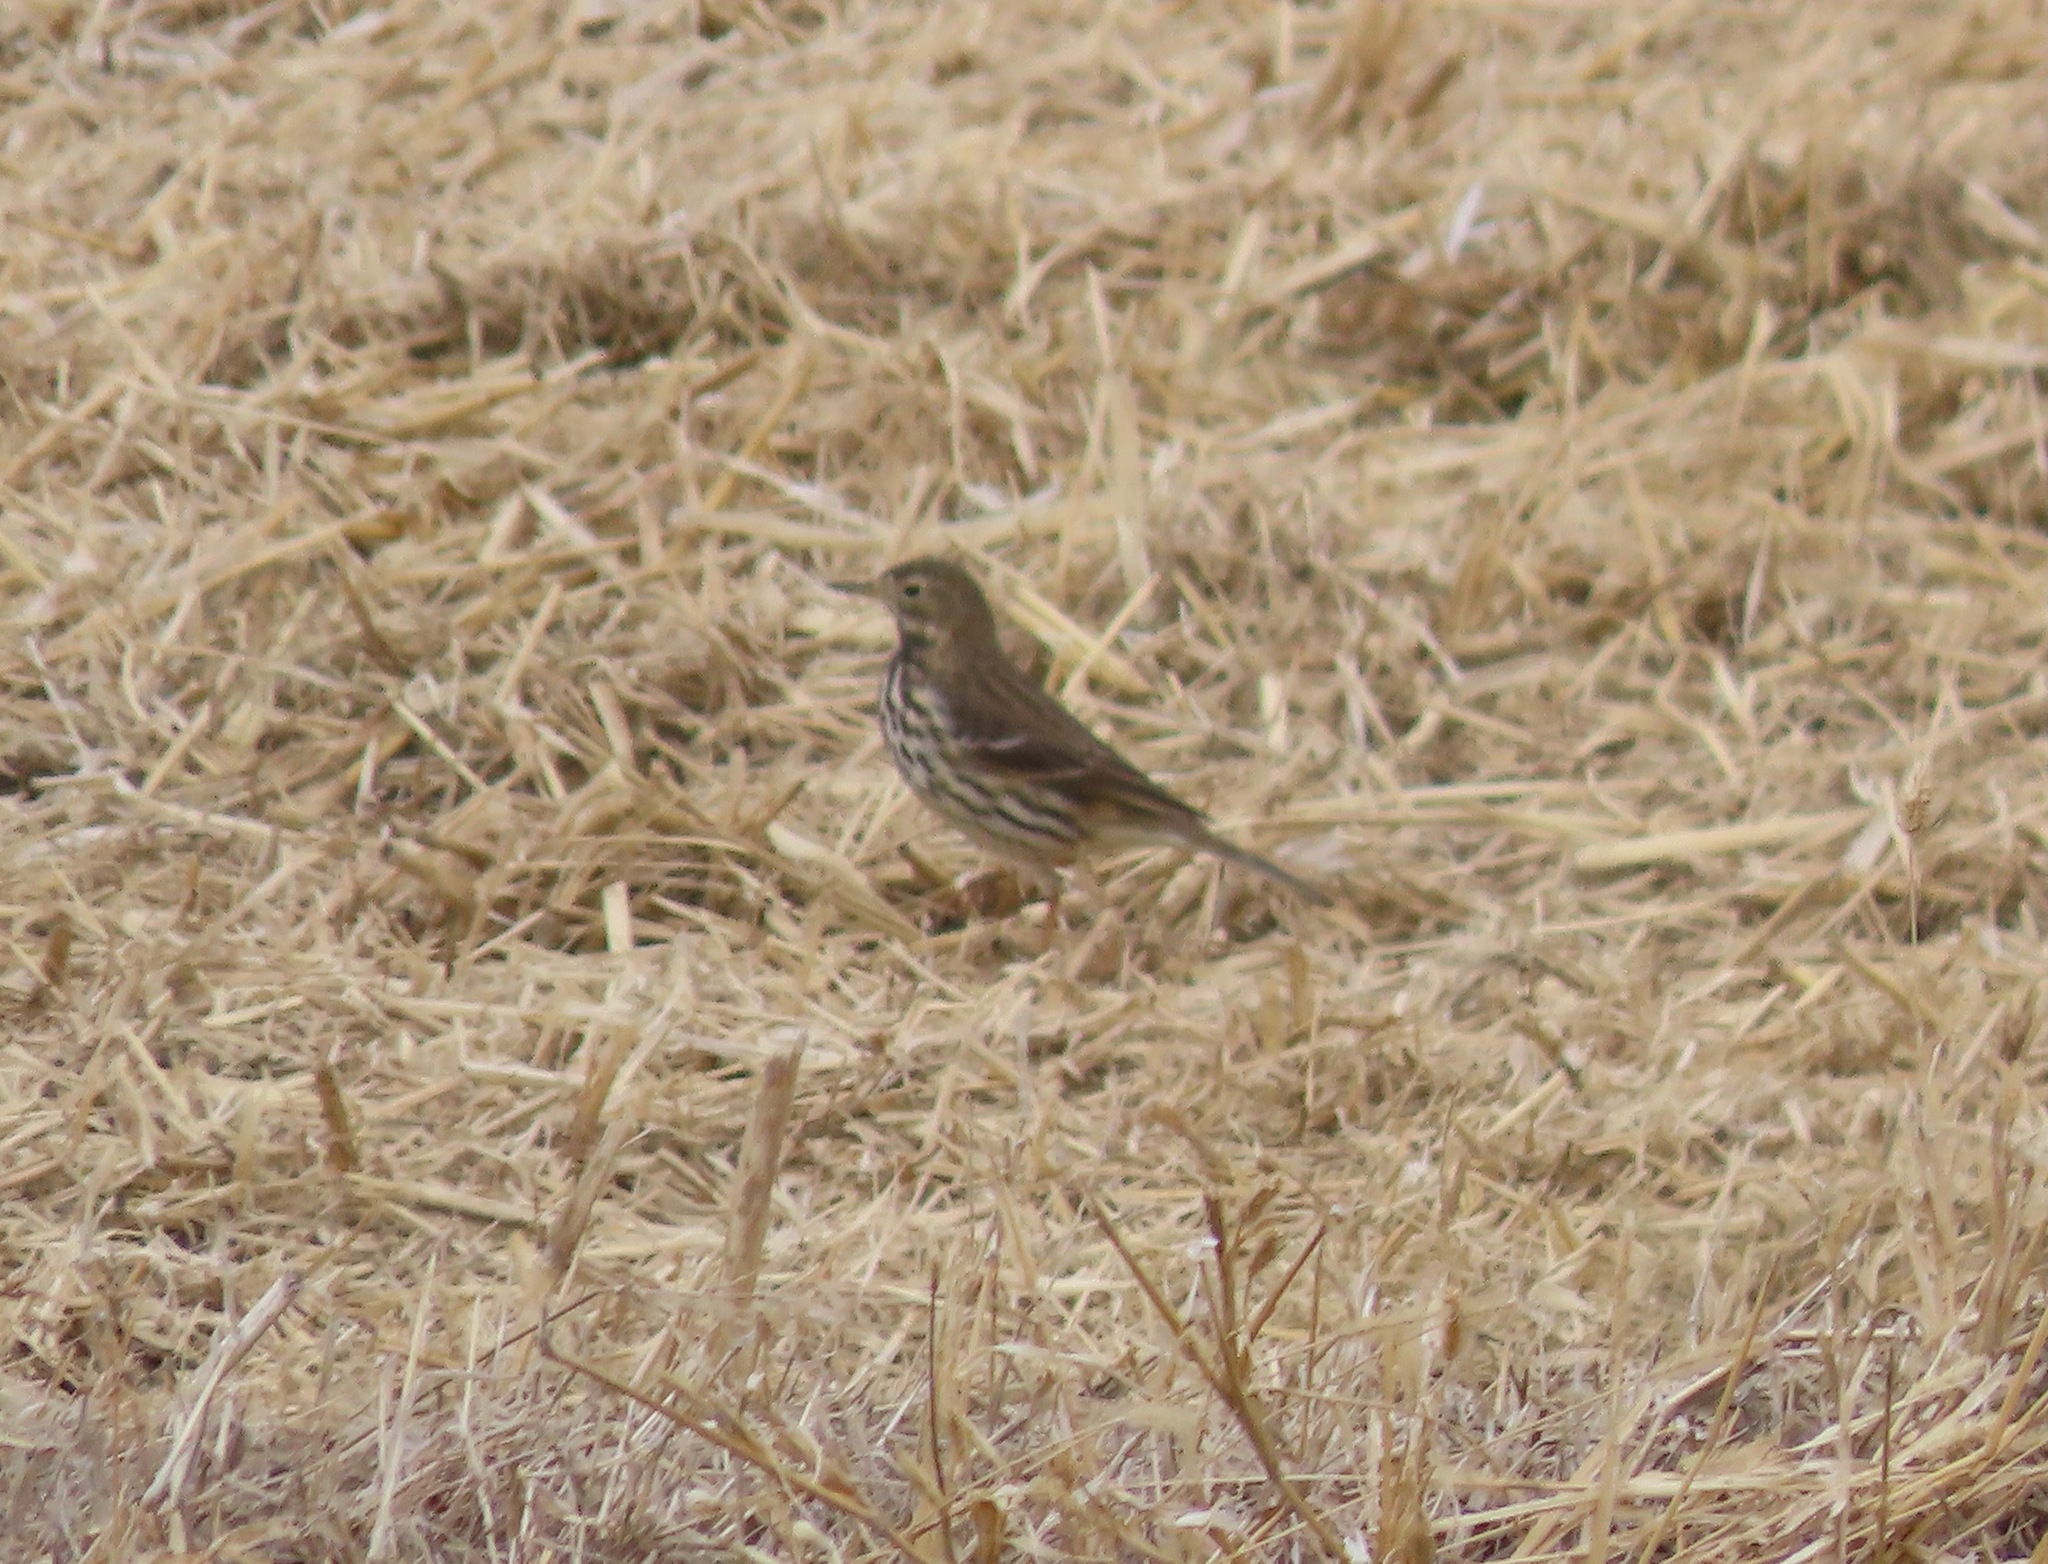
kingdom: Animalia
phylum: Chordata
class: Aves
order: Passeriformes
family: Motacillidae
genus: Anthus
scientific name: Anthus rubescens
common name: Buff-bellied pipit
